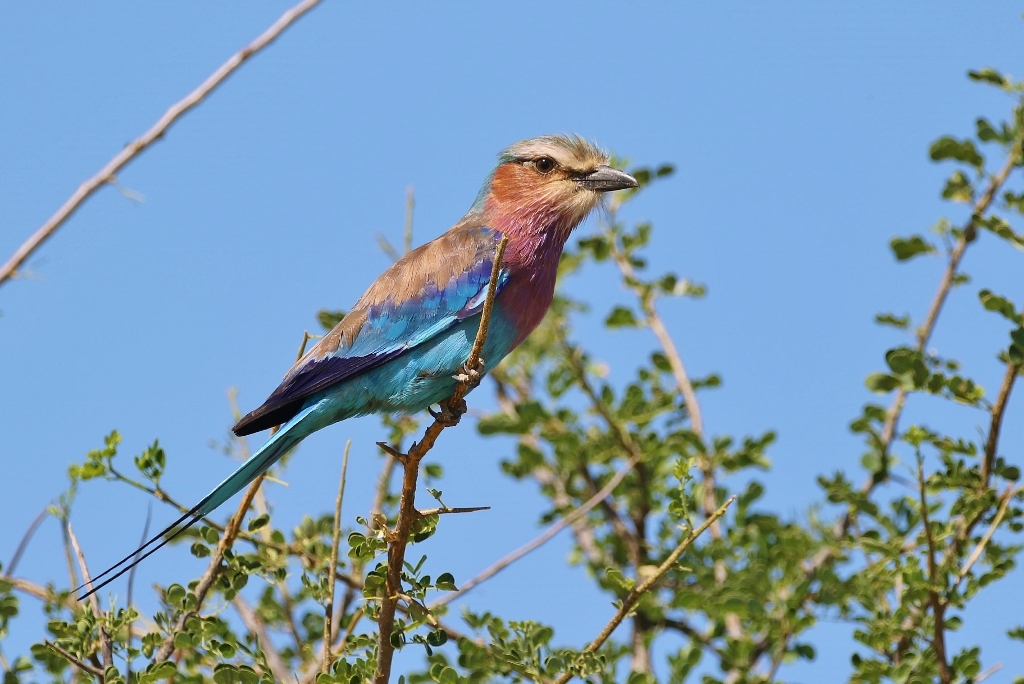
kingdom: Animalia
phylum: Chordata
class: Aves
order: Coraciiformes
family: Coraciidae
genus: Coracias
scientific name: Coracias caudatus
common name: Lilac-breasted roller
